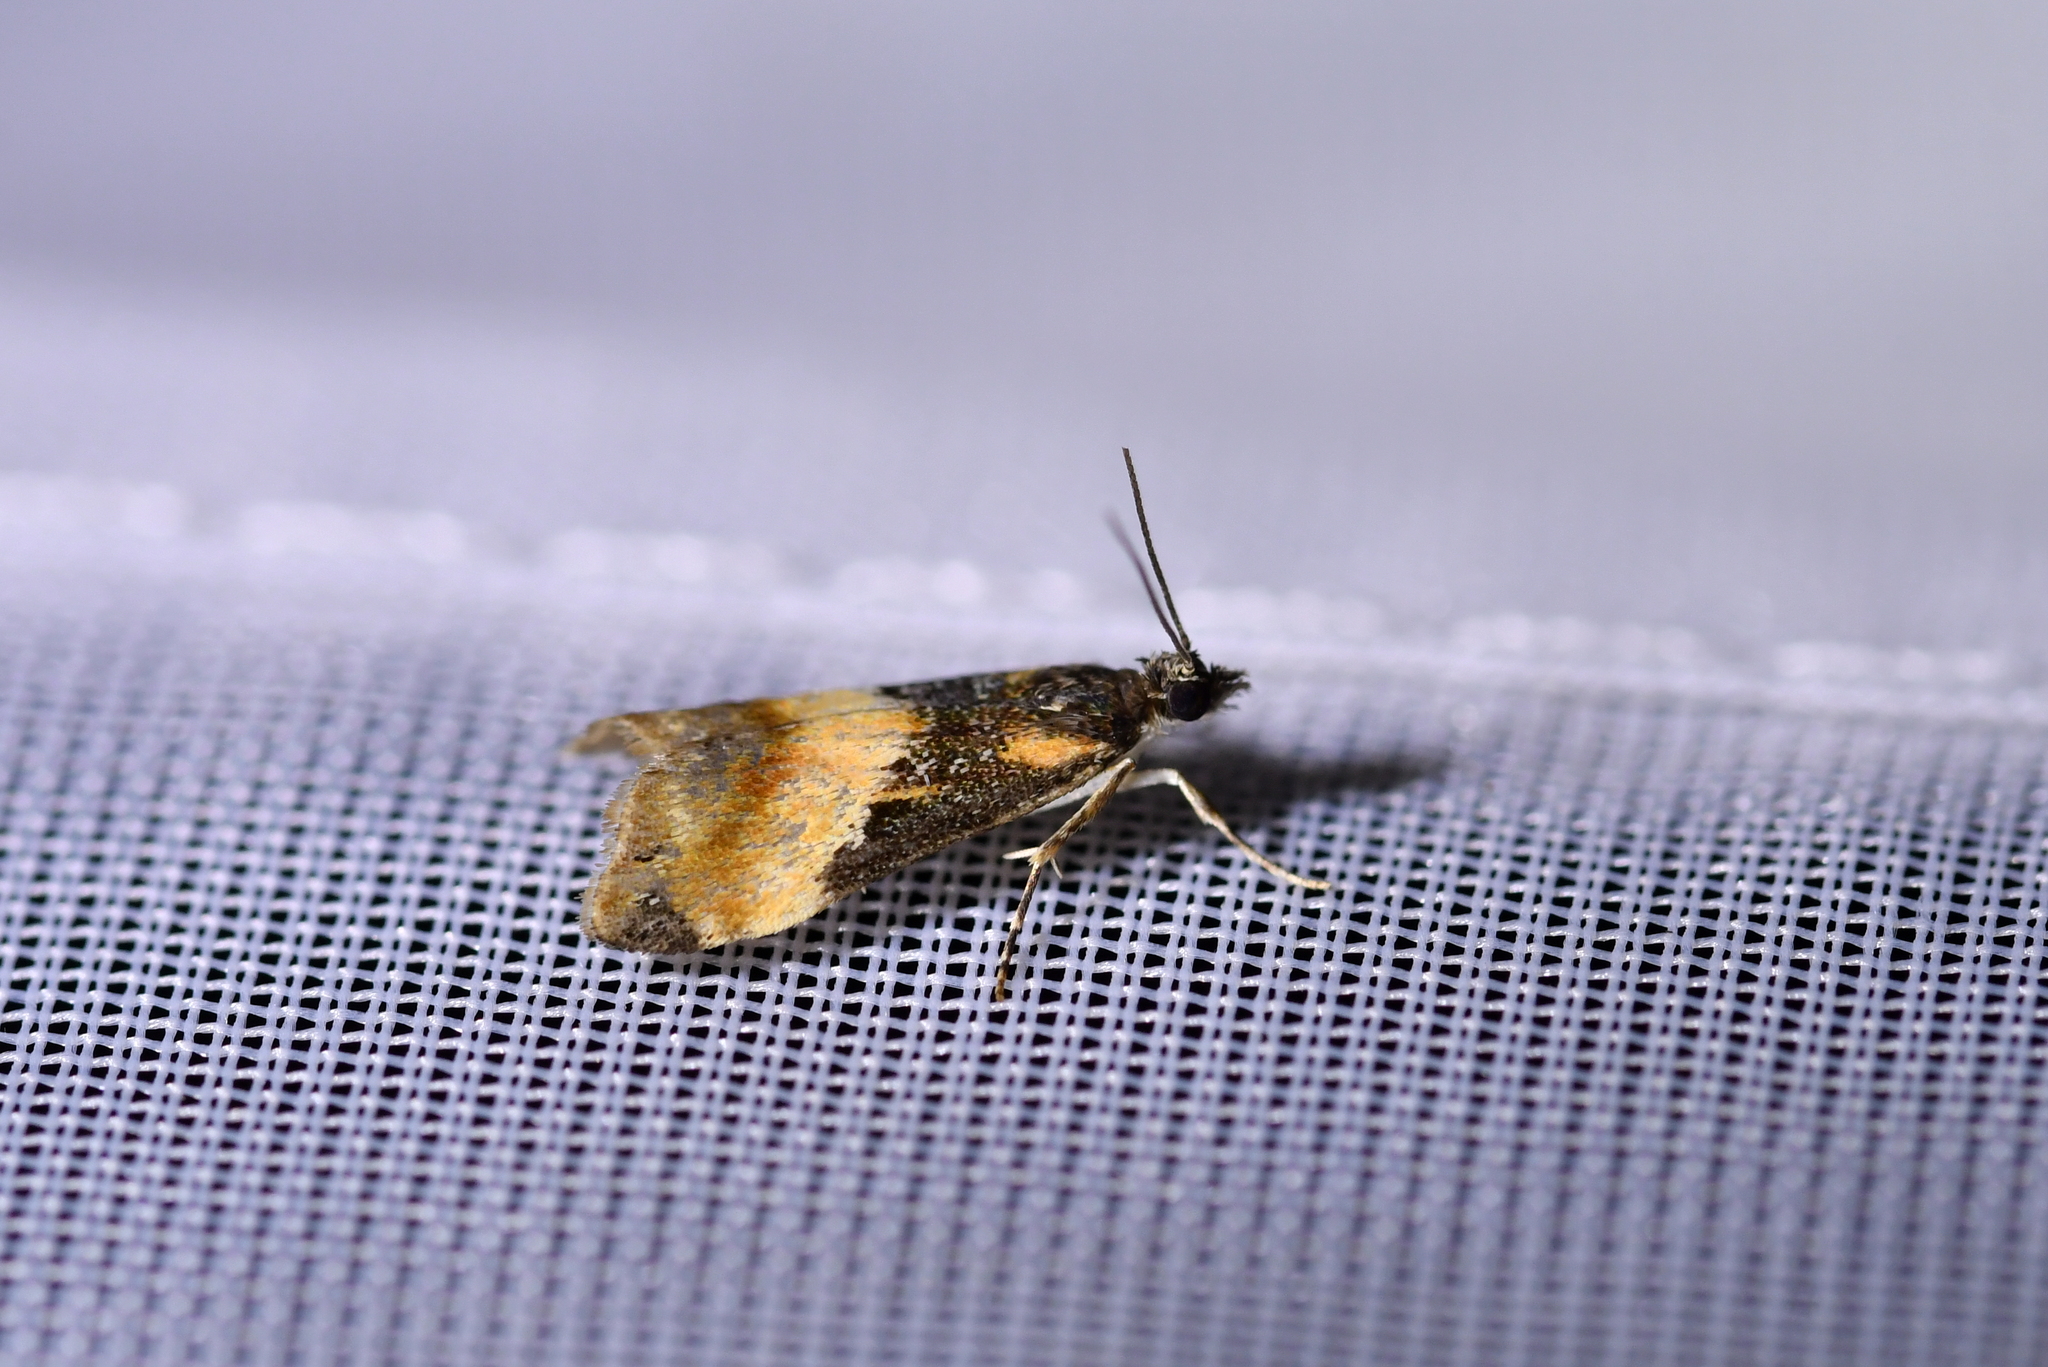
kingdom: Animalia
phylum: Arthropoda
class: Insecta
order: Lepidoptera
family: Crambidae
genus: Eudonia
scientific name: Eudonia chlamydota
